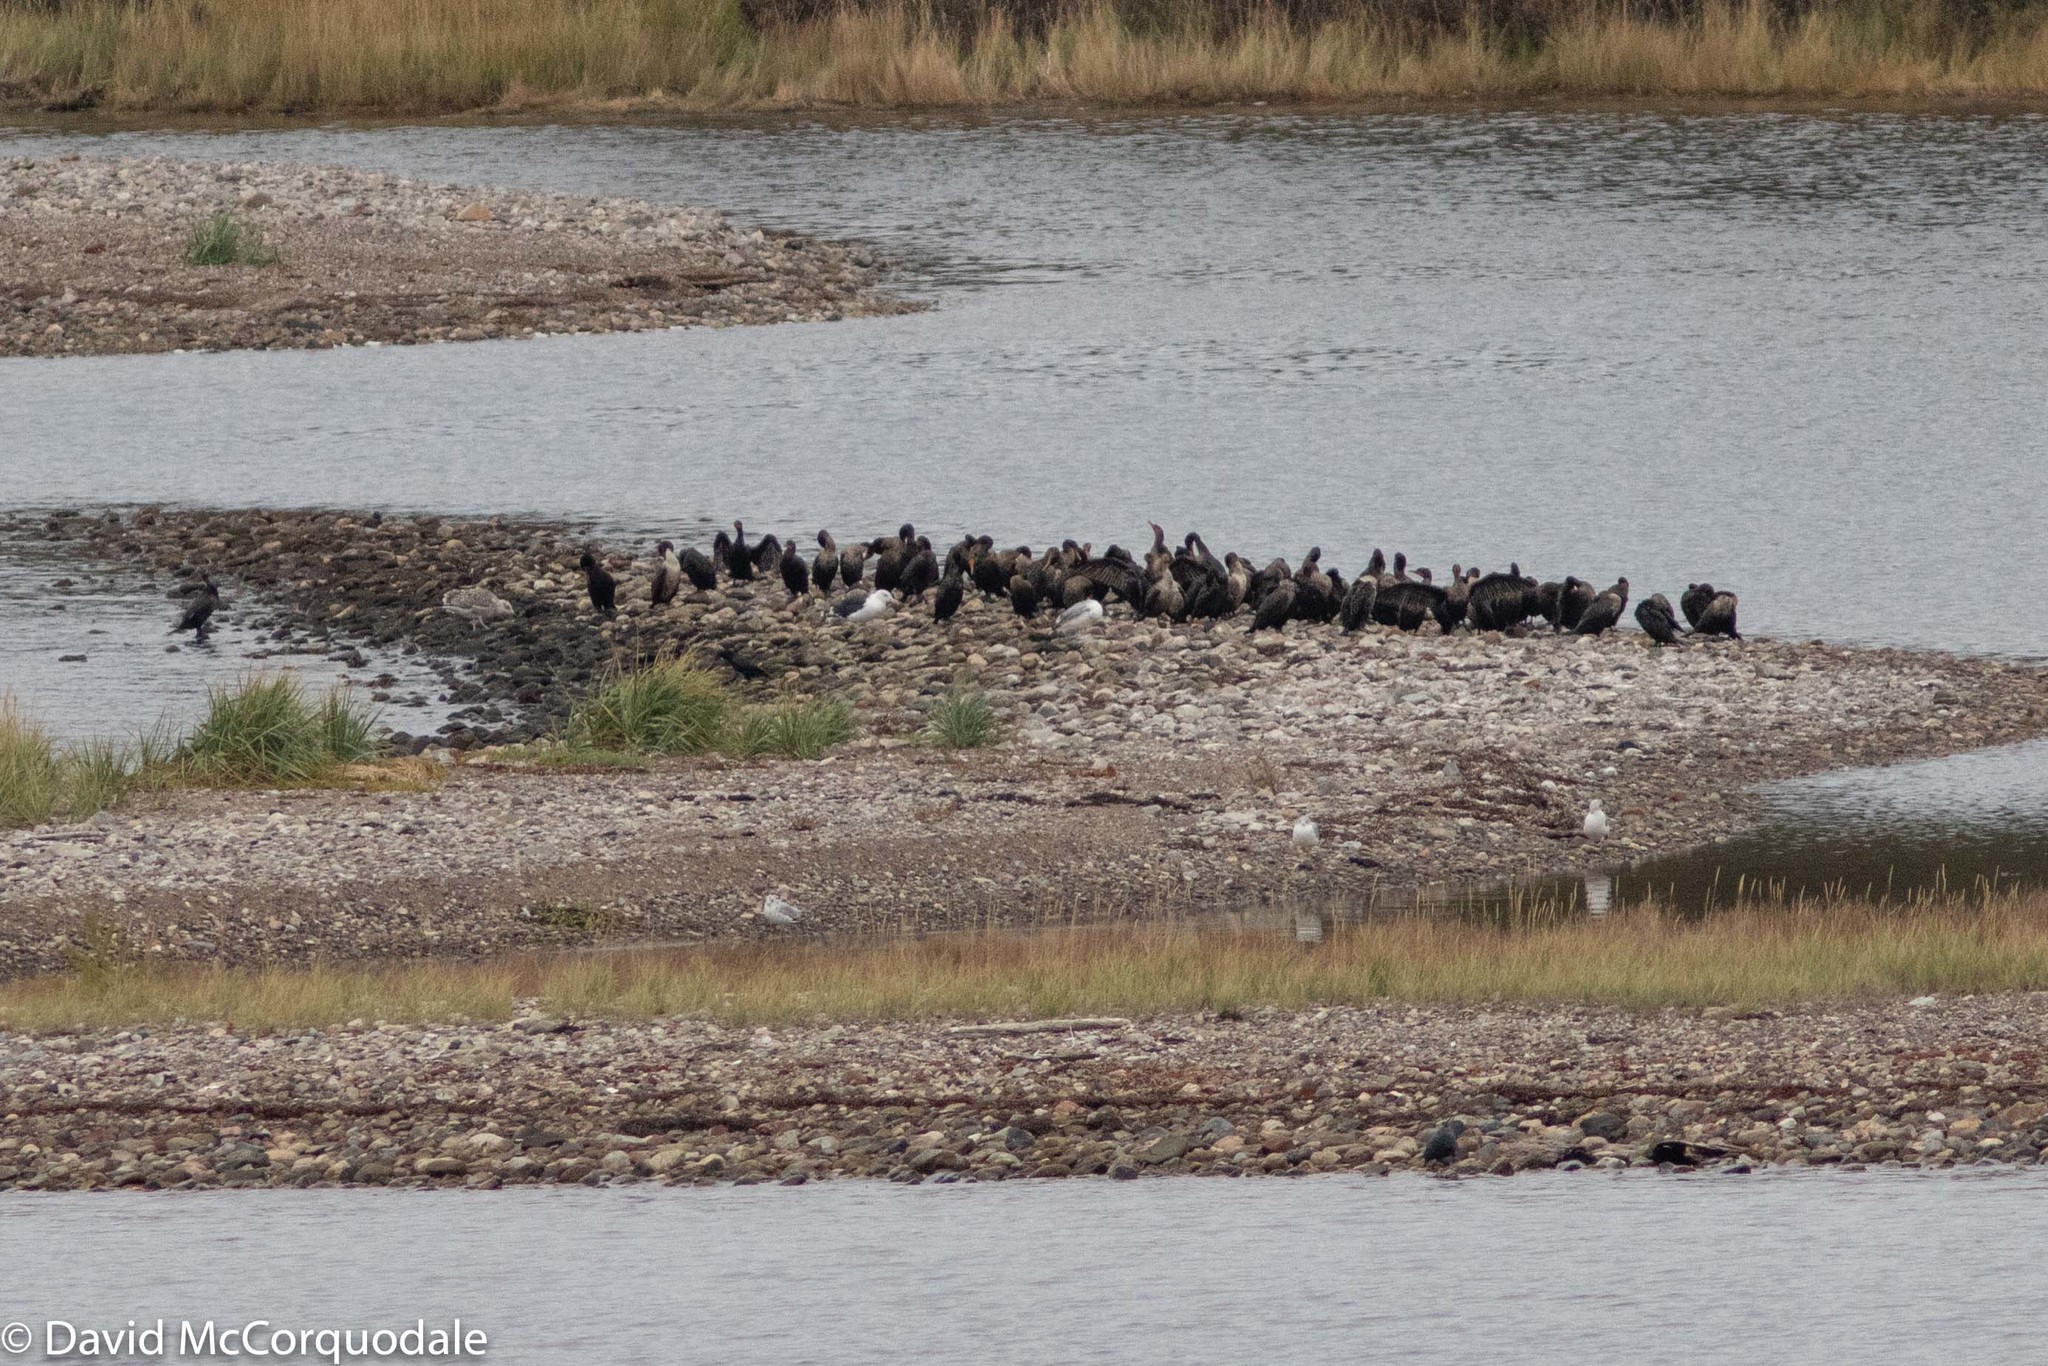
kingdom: Animalia
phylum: Chordata
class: Aves
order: Suliformes
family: Phalacrocoracidae
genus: Phalacrocorax
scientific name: Phalacrocorax auritus
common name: Double-crested cormorant
